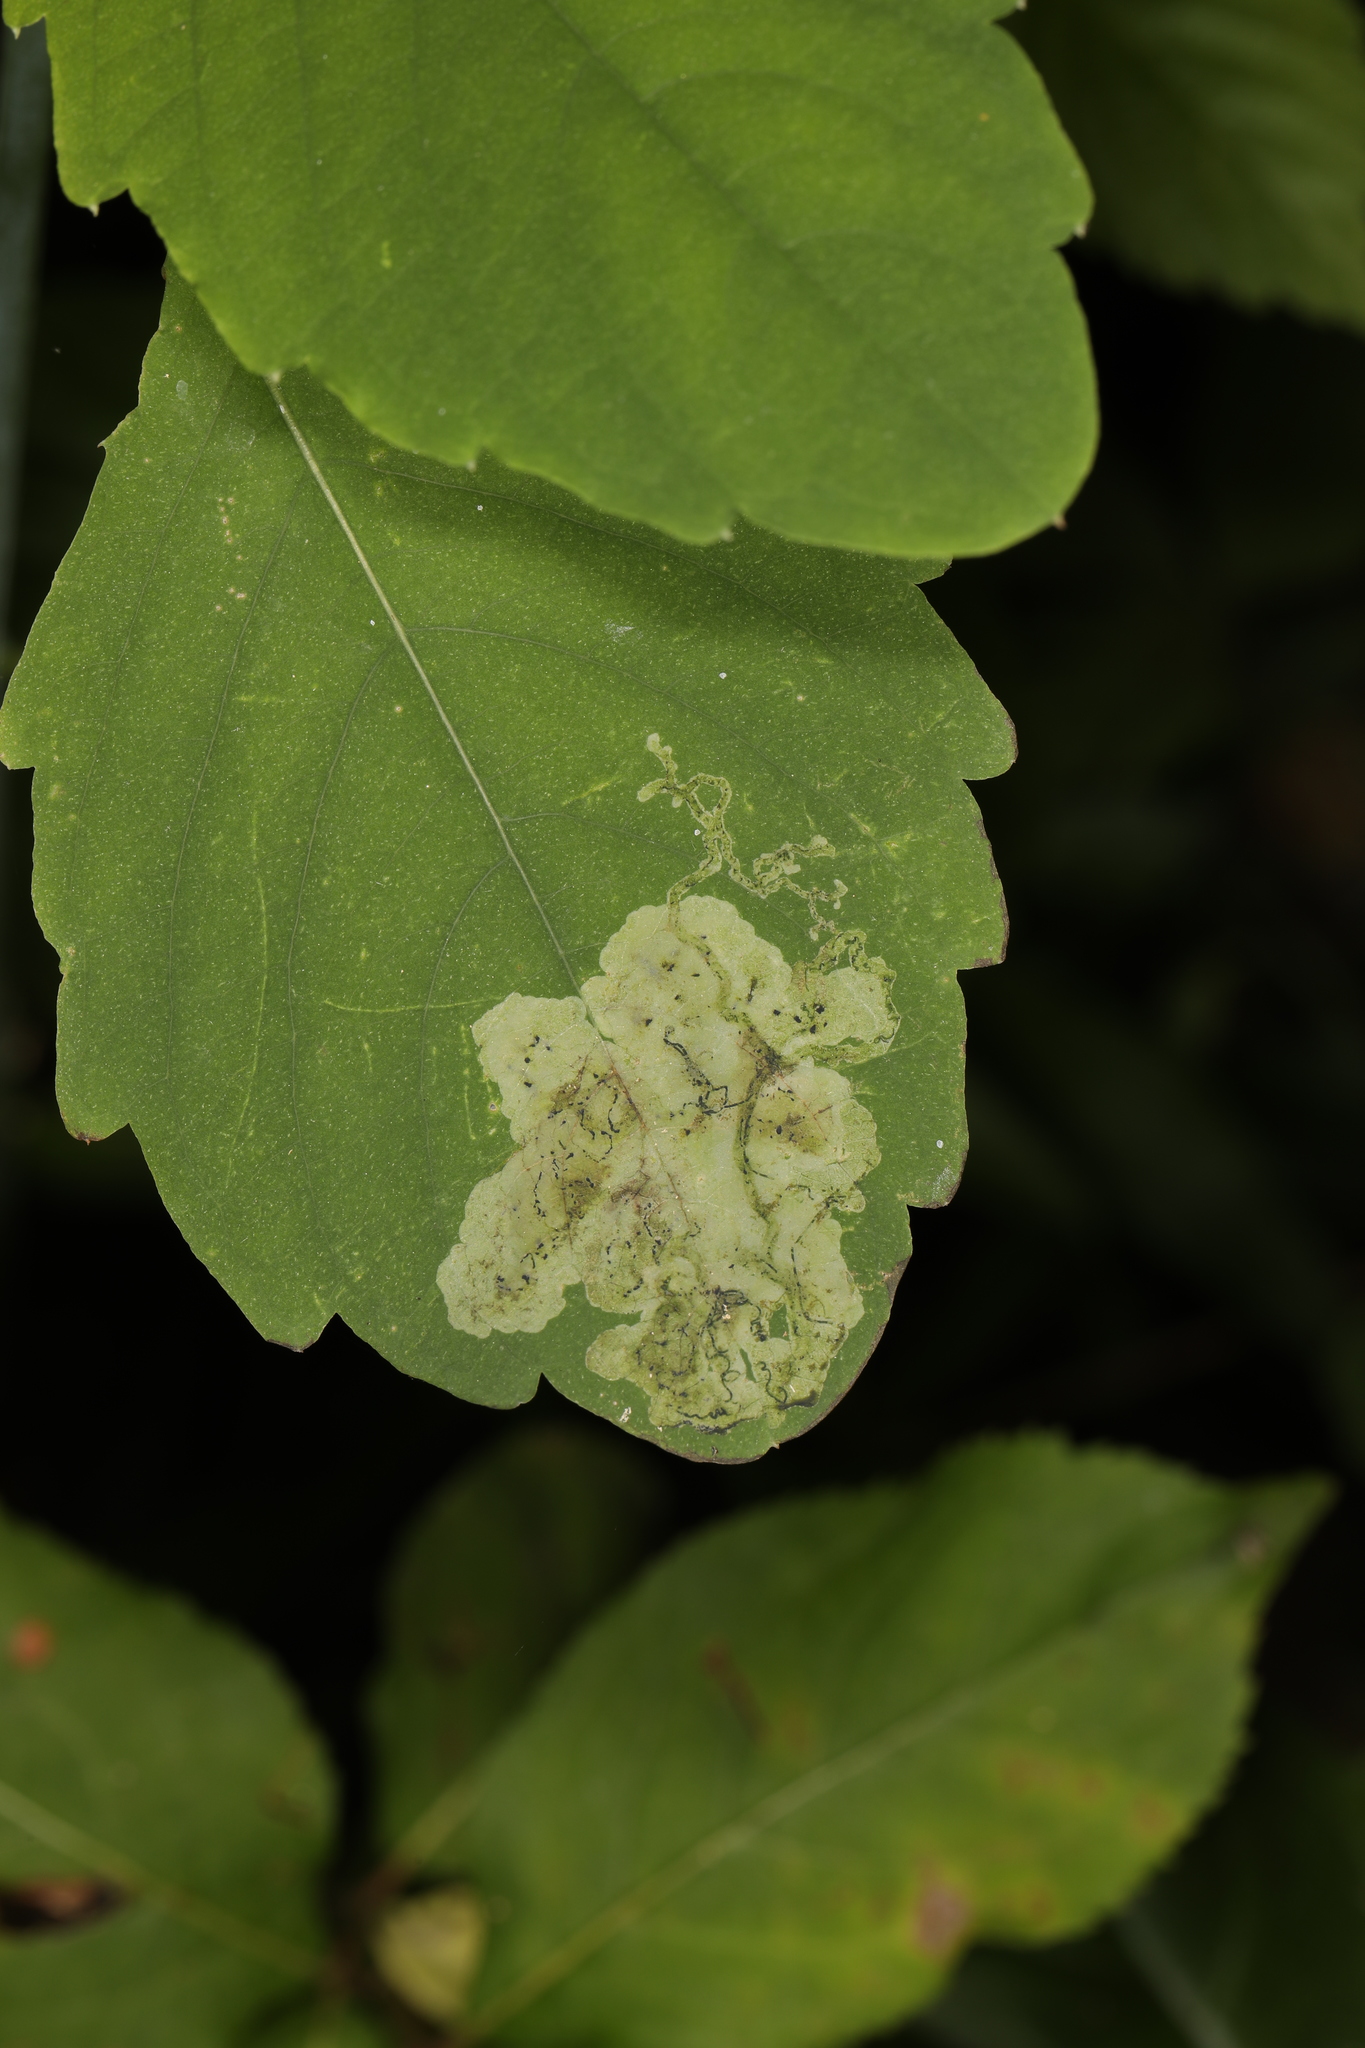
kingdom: Animalia
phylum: Arthropoda
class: Insecta
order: Diptera
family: Agromyzidae
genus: Phytoliriomyza
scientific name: Phytoliriomyza melampyga
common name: Jewelweed leaf-miner fly
